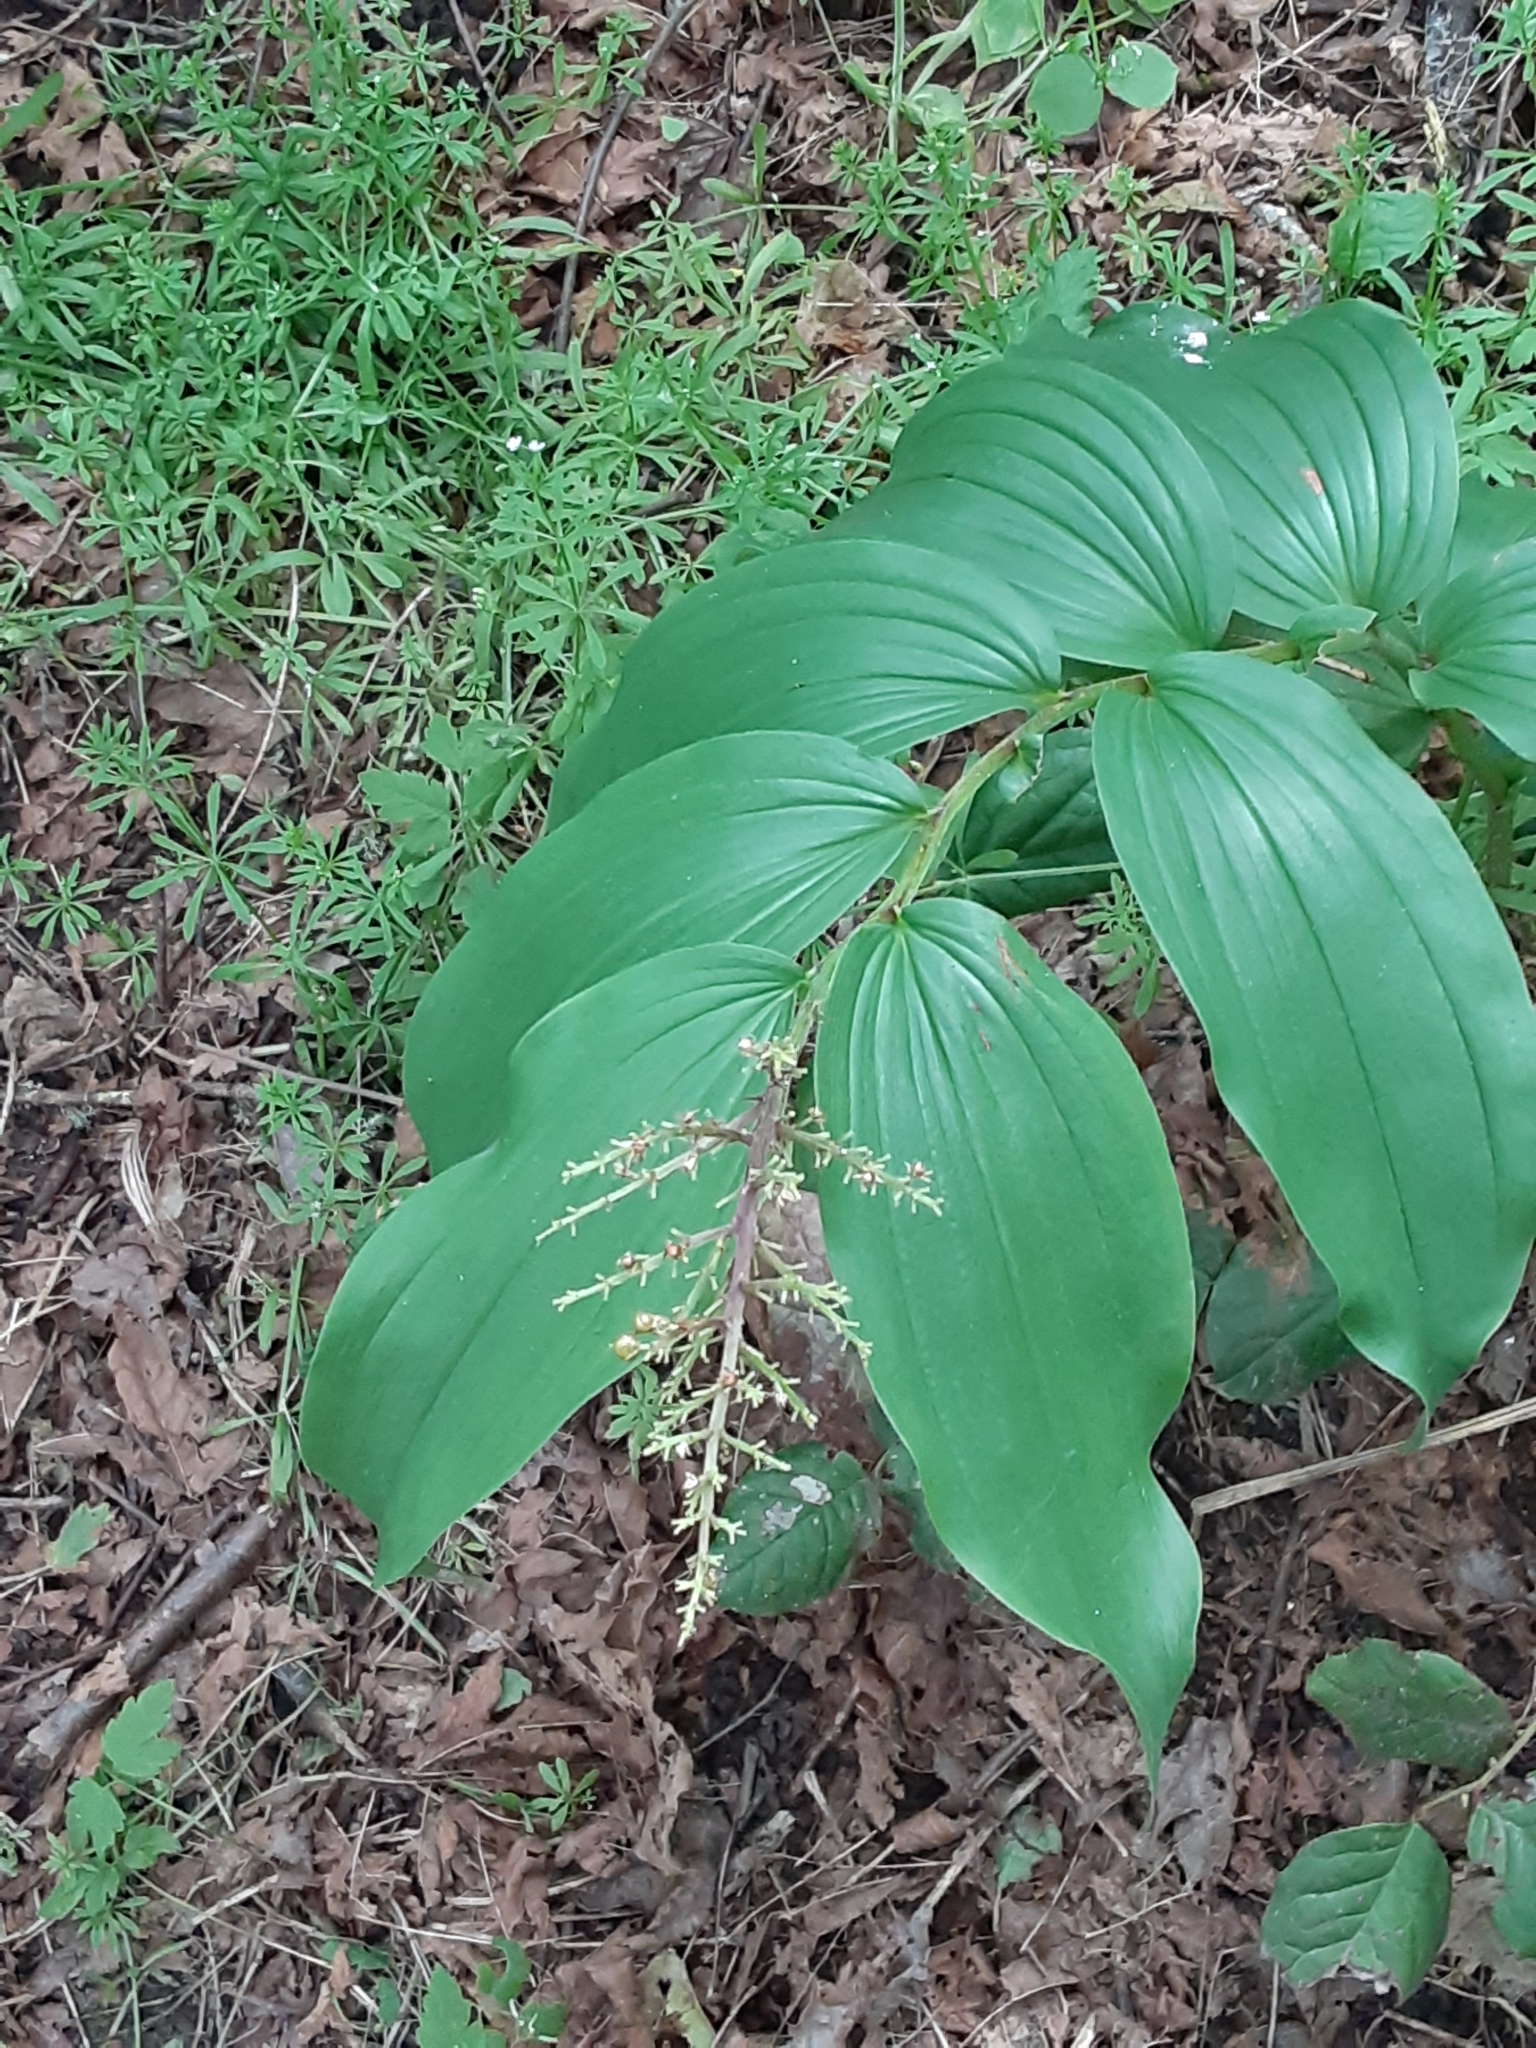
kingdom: Plantae
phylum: Tracheophyta
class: Liliopsida
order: Asparagales
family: Asparagaceae
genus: Maianthemum
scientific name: Maianthemum racemosum
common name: False spikenard
